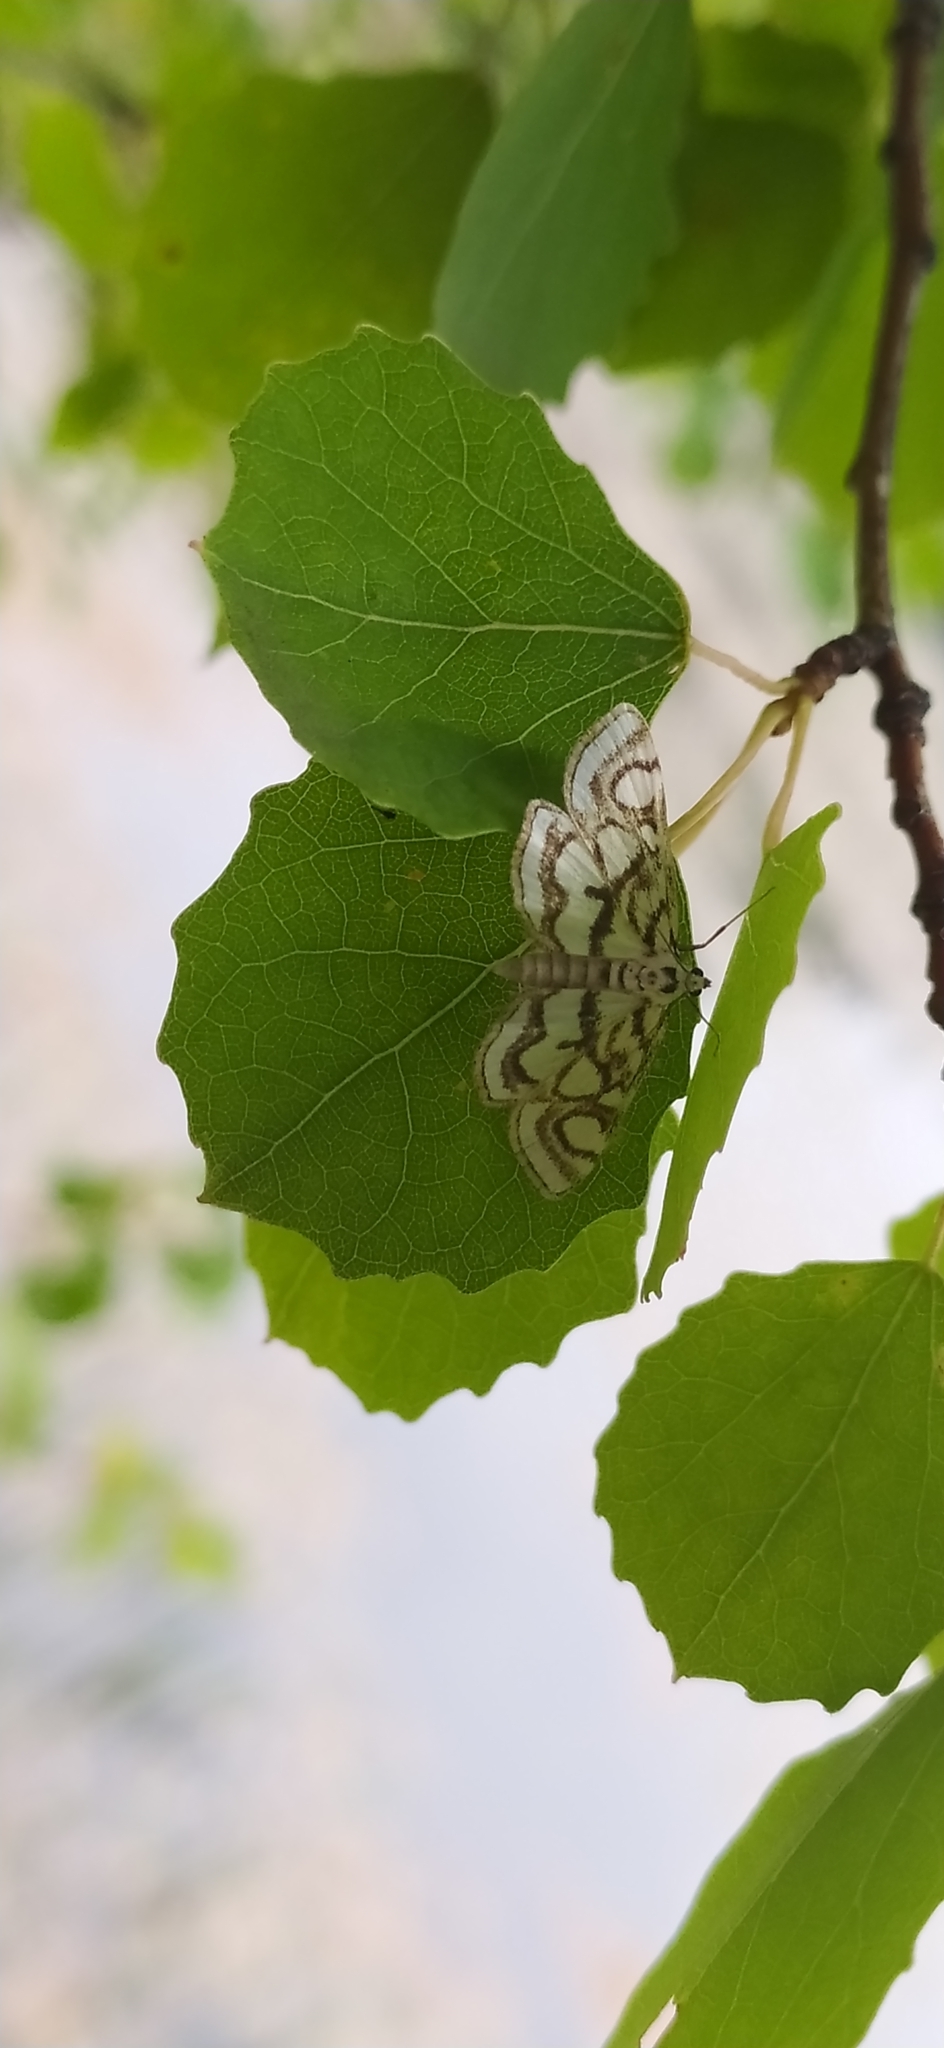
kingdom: Animalia
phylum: Arthropoda
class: Insecta
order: Lepidoptera
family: Crambidae
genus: Nymphula
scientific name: Nymphula nitidulata
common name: Beautiful china mark
